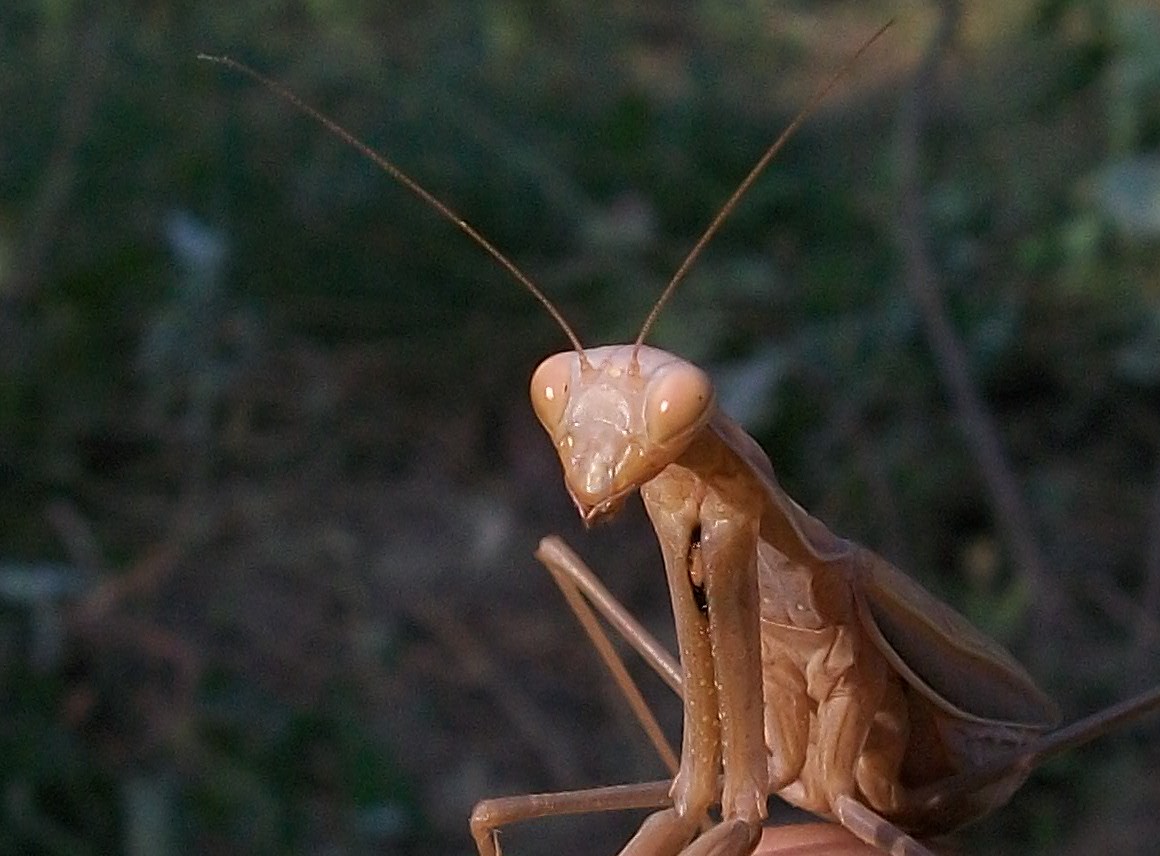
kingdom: Animalia
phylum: Arthropoda
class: Insecta
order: Mantodea
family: Mantidae
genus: Mantis
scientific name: Mantis religiosa
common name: Praying mantis
